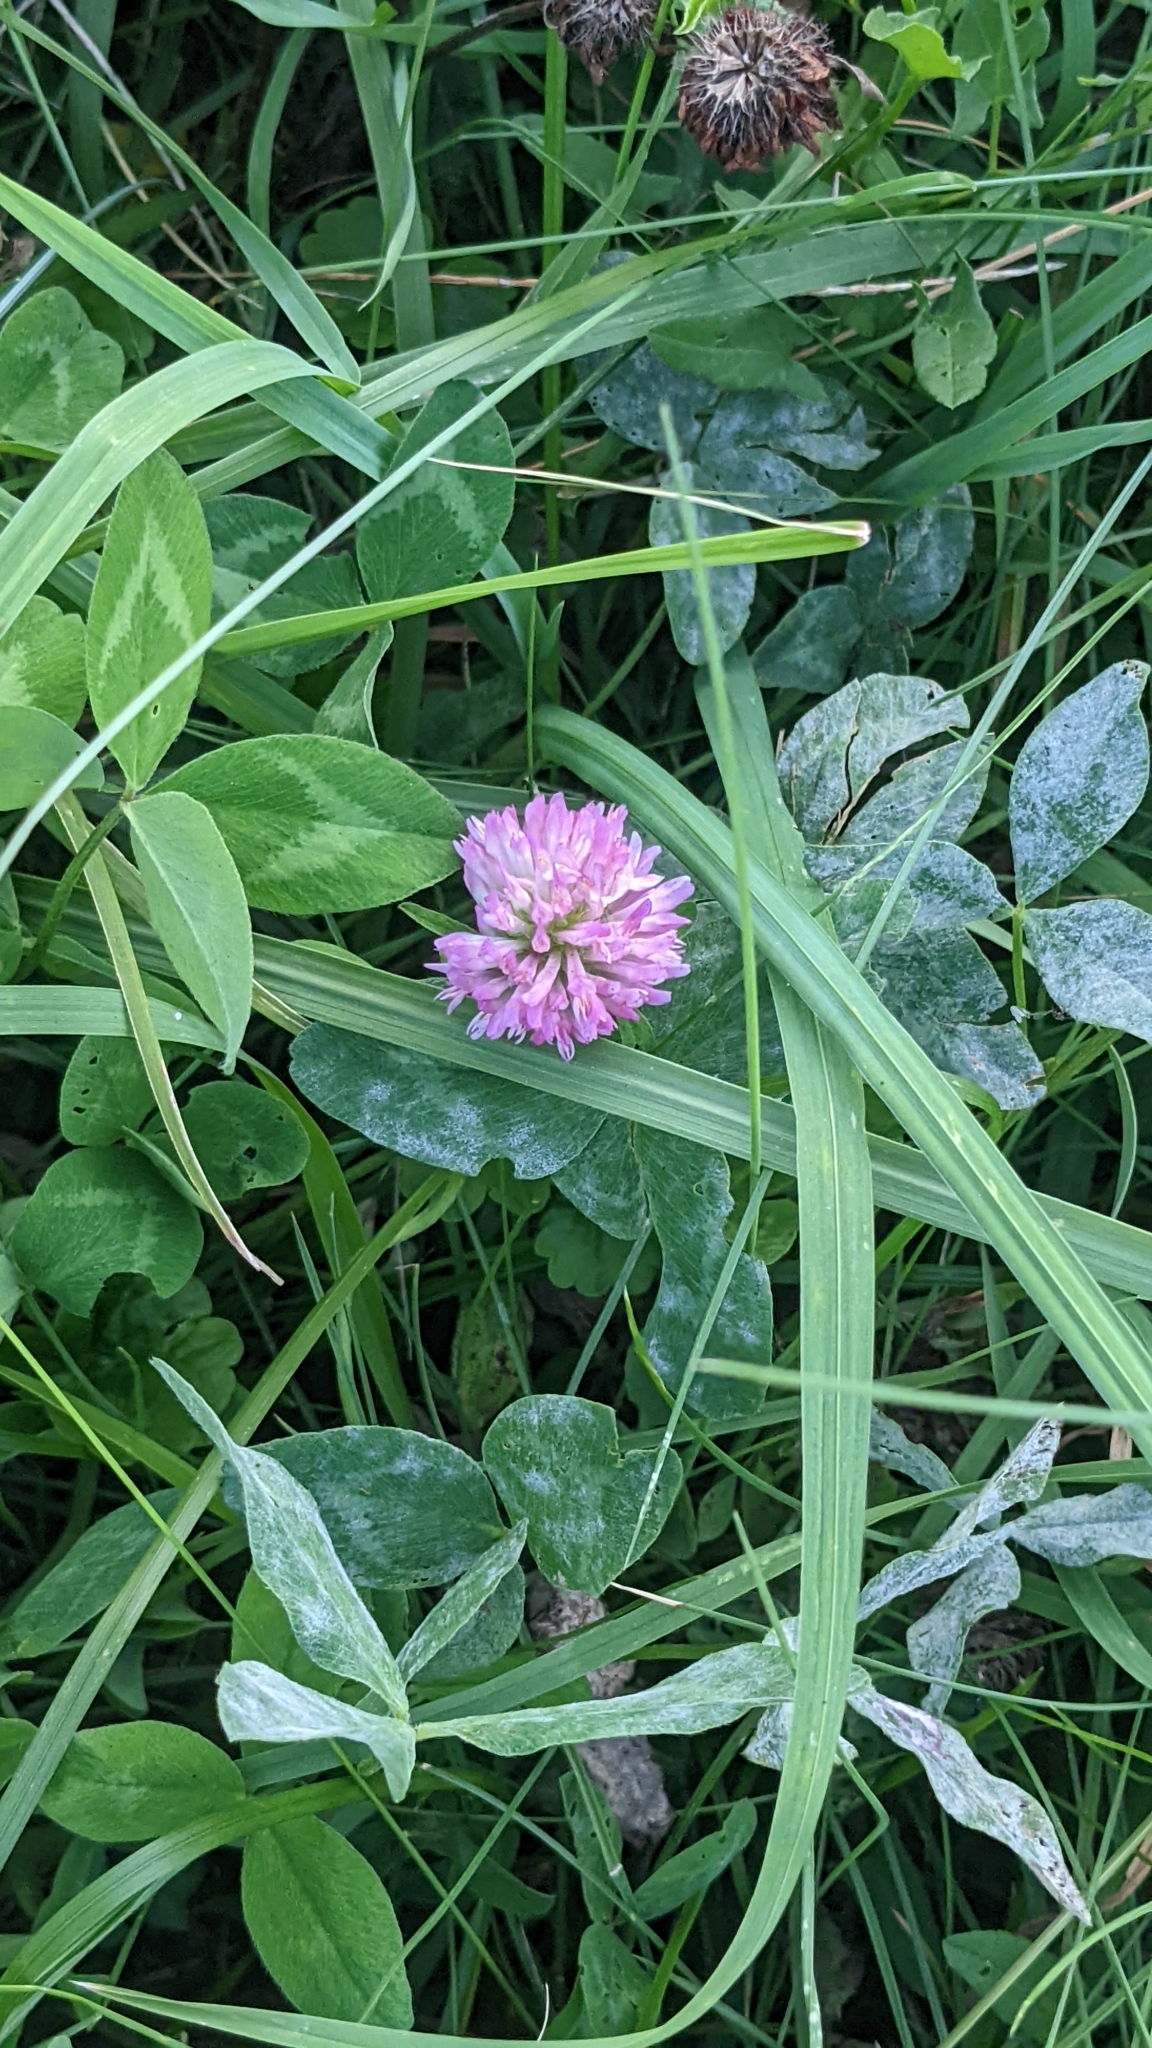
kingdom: Plantae
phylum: Tracheophyta
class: Magnoliopsida
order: Fabales
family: Fabaceae
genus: Trifolium
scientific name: Trifolium pratense
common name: Red clover
